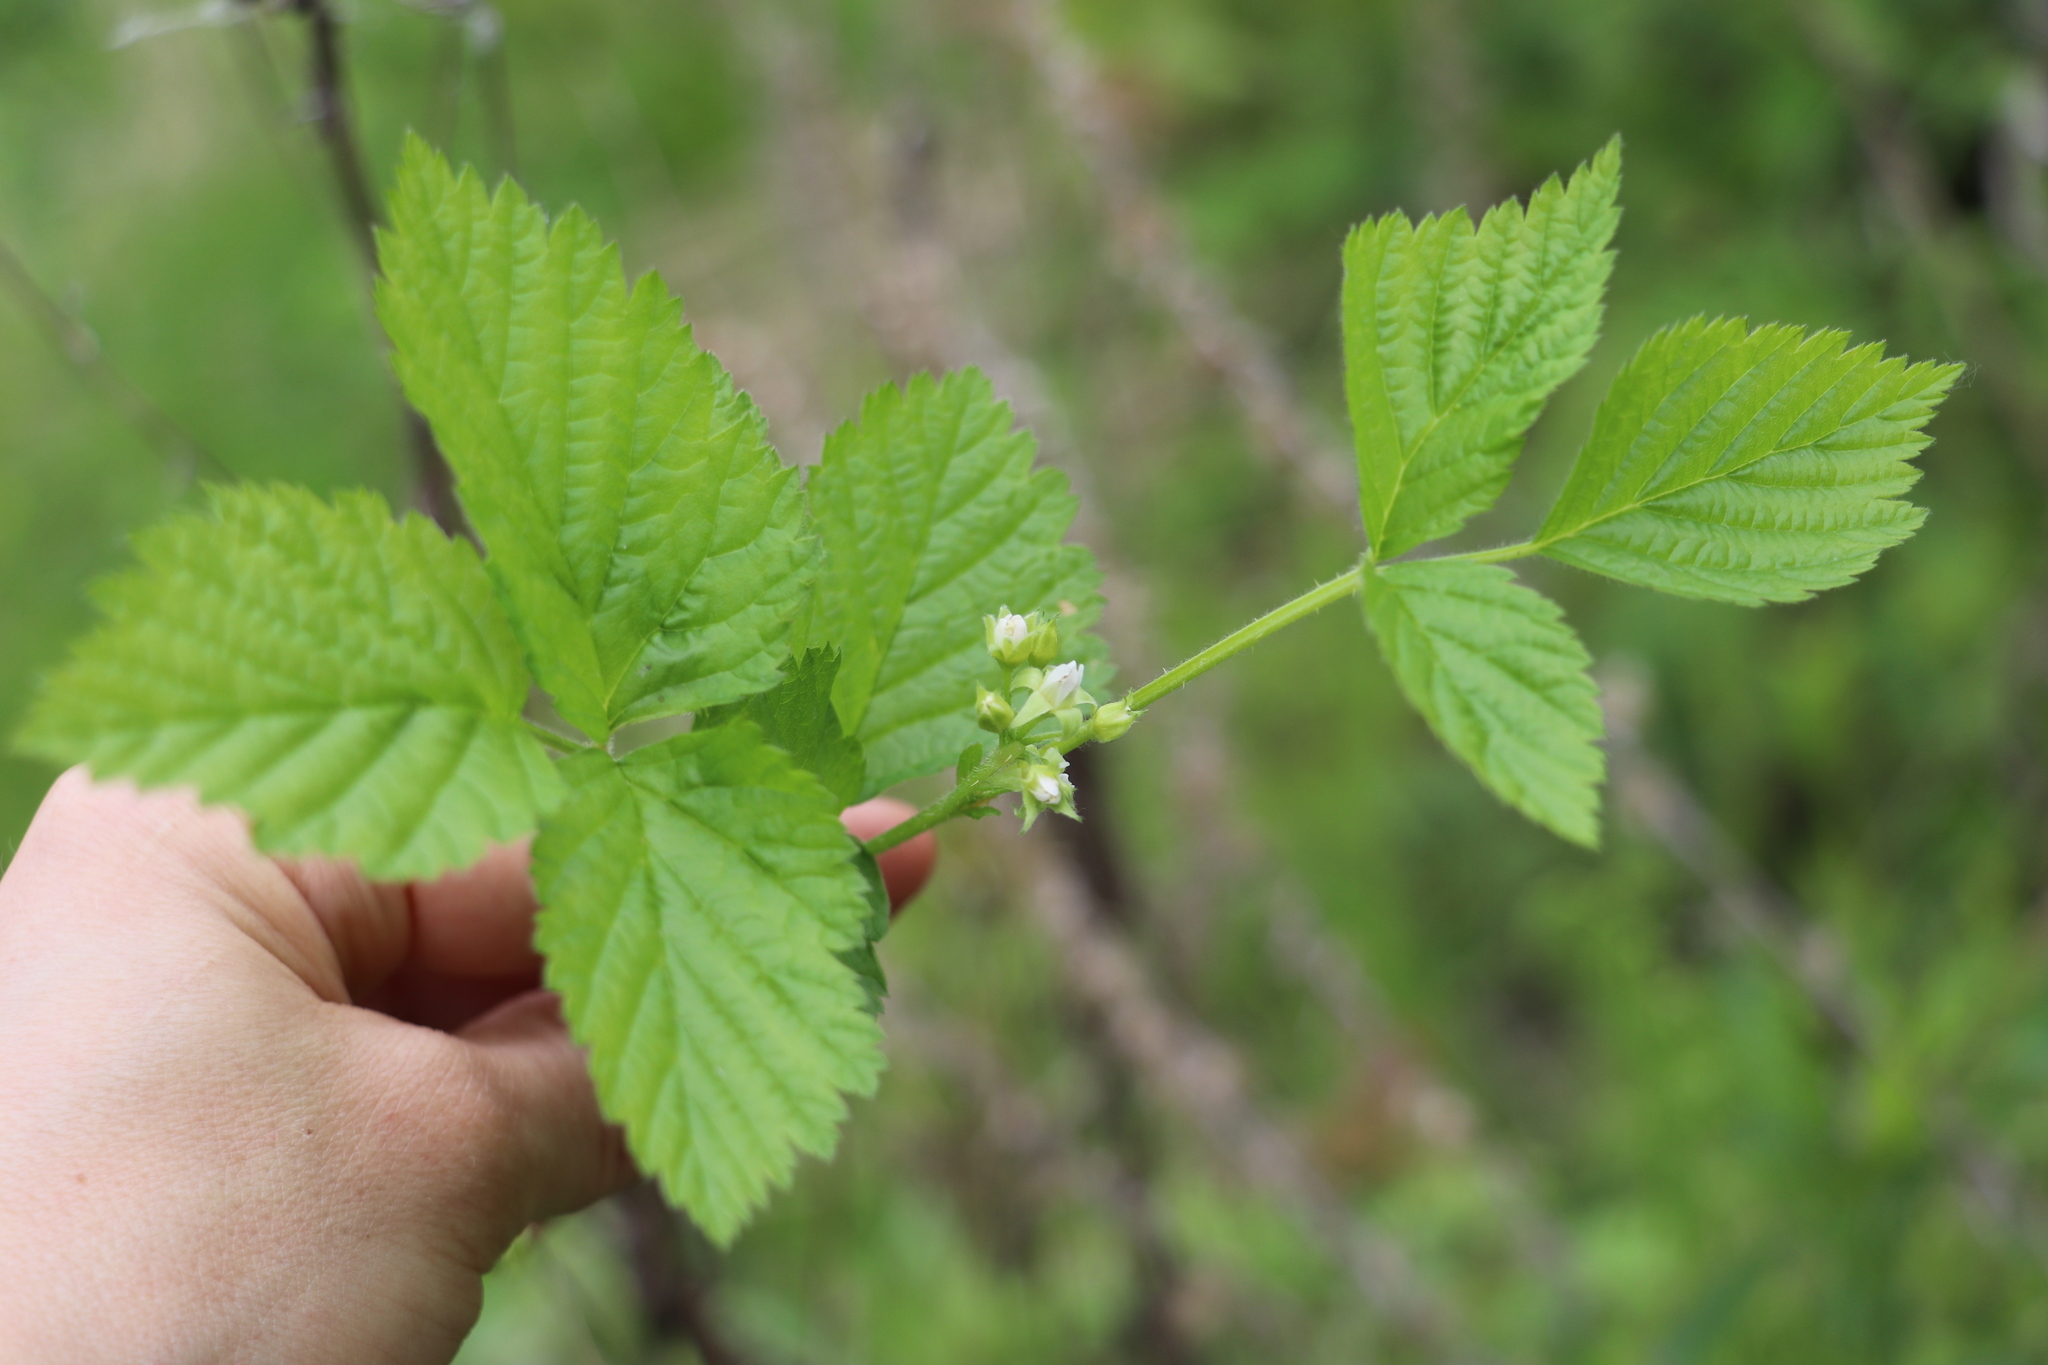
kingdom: Plantae
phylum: Tracheophyta
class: Magnoliopsida
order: Rosales
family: Rosaceae
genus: Rubus
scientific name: Rubus saxatilis
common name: Stone bramble
